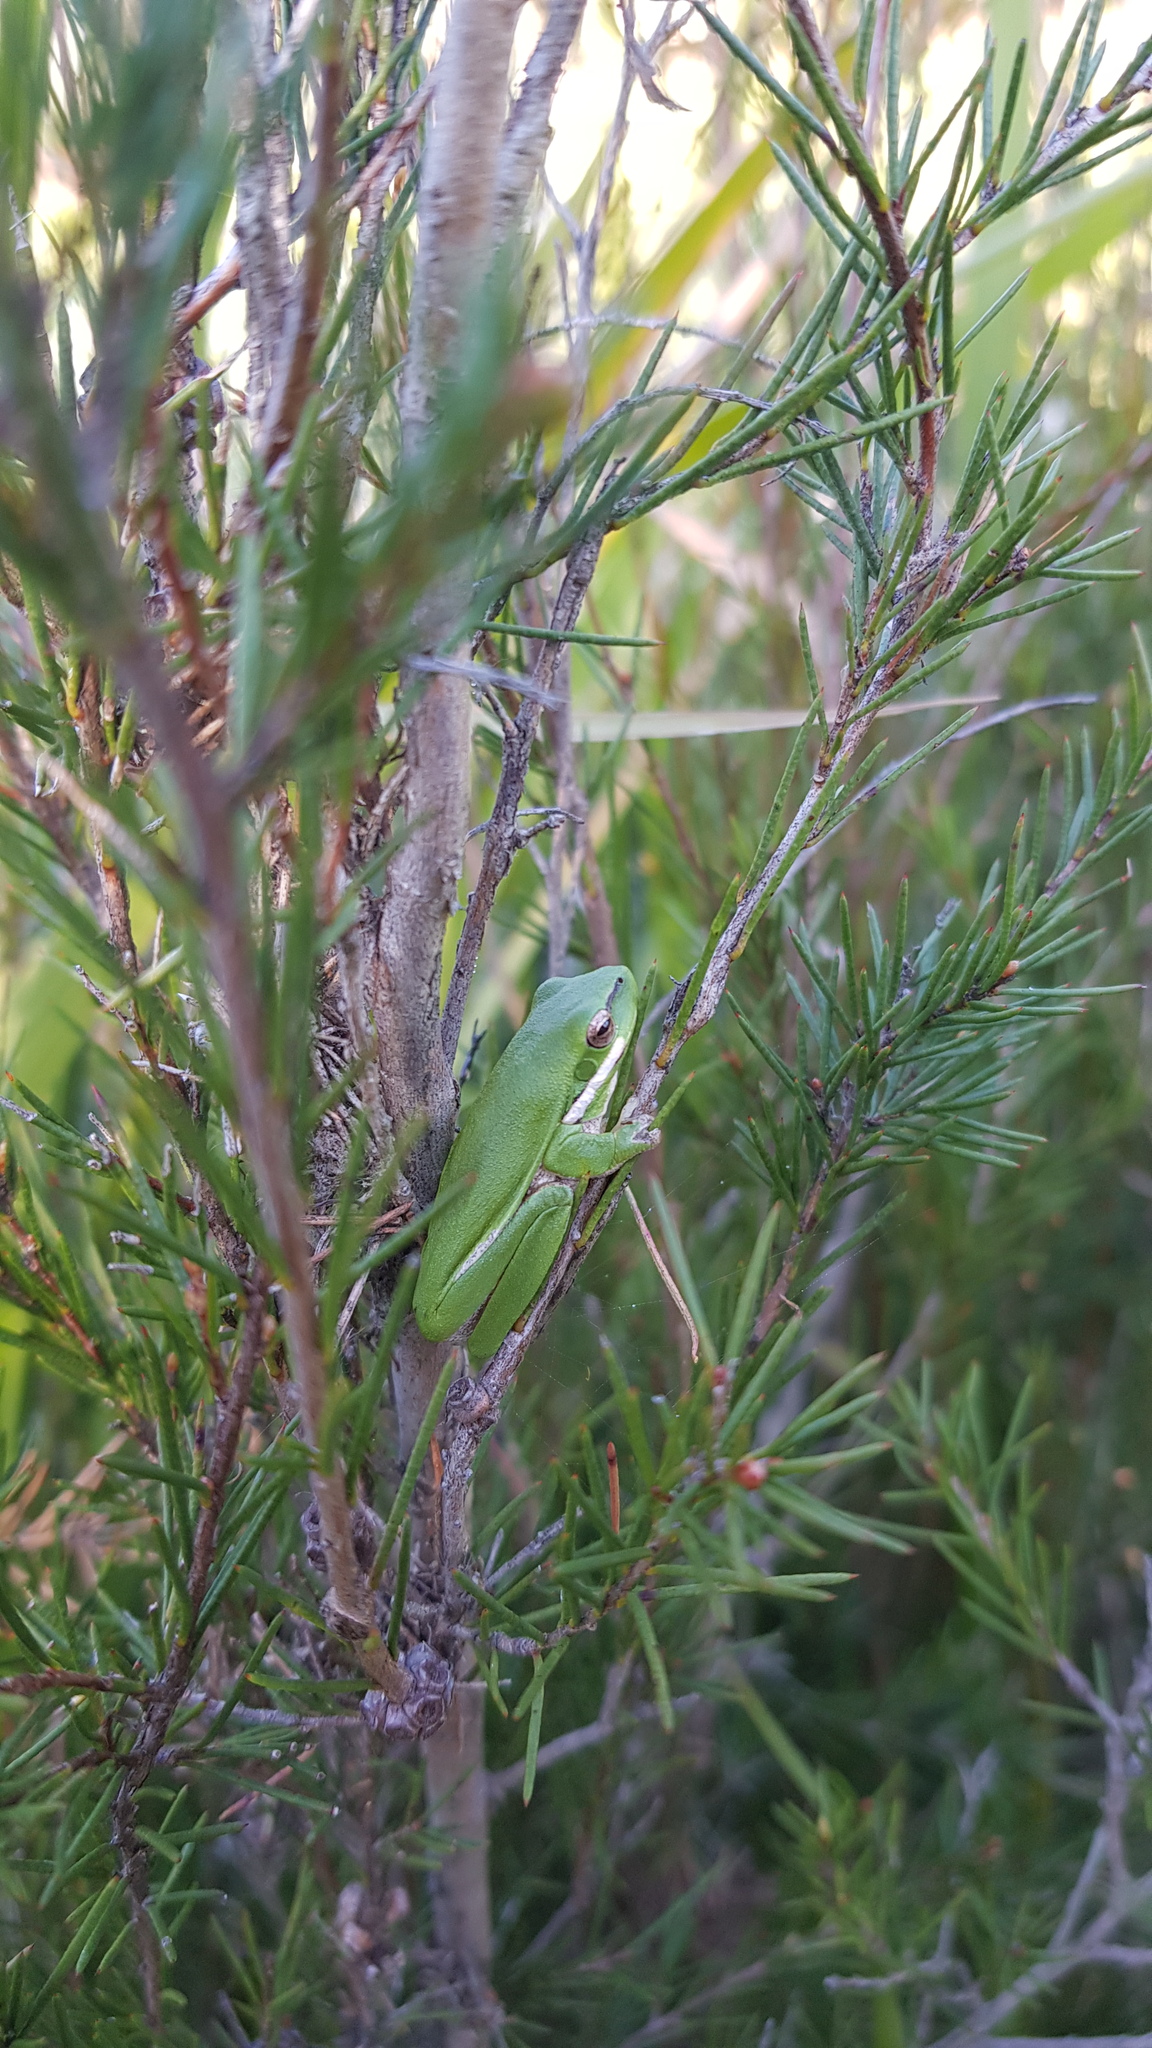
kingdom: Animalia
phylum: Chordata
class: Amphibia
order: Anura
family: Pelodryadidae
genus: Litoria
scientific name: Litoria fallax
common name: Eastern dwarf treefrog
